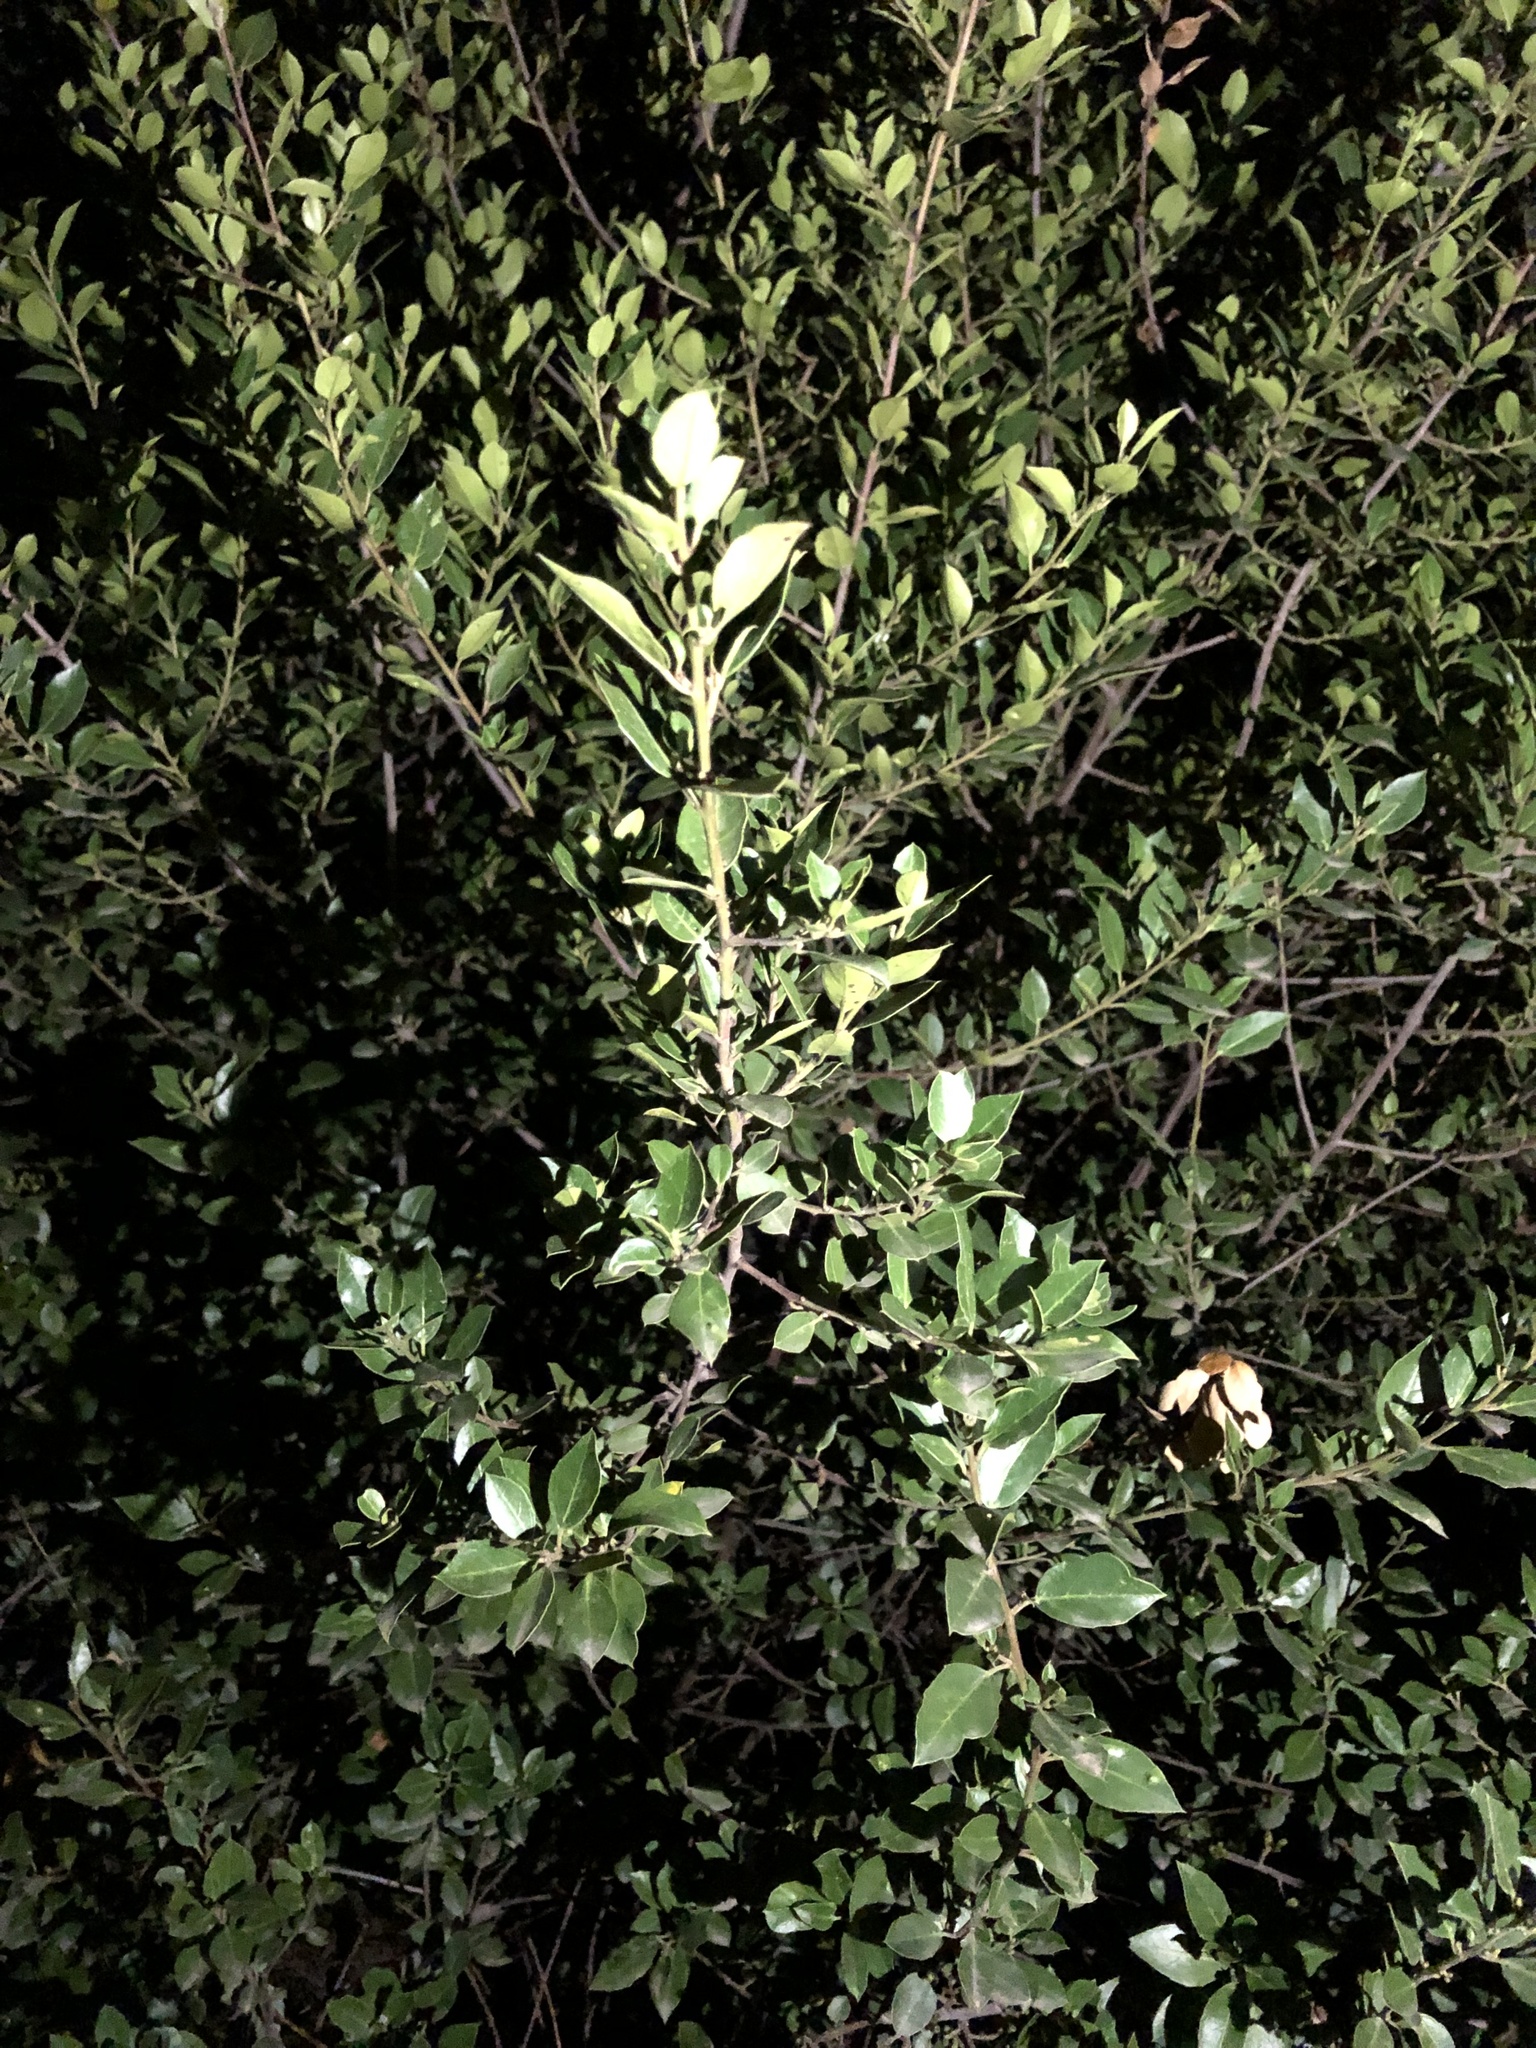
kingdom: Plantae
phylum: Tracheophyta
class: Magnoliopsida
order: Rosales
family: Rhamnaceae
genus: Rhamnus
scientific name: Rhamnus alaternus
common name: Mediterranean buckthorn
